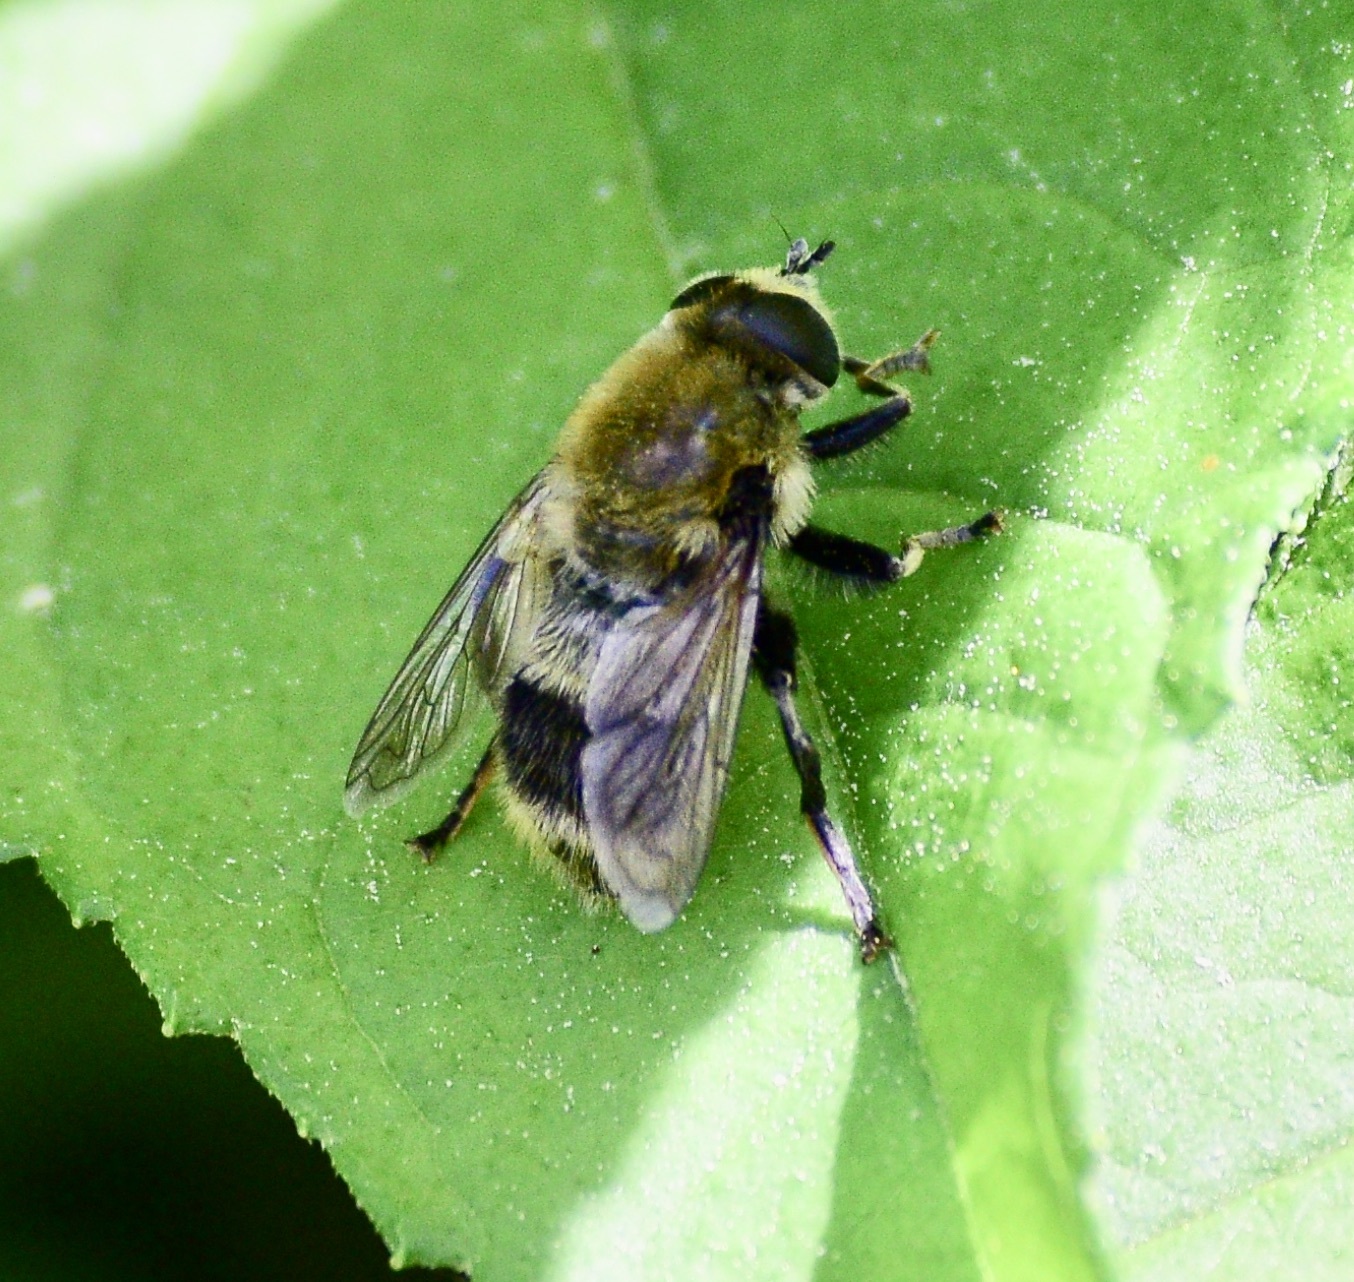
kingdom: Animalia
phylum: Arthropoda
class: Insecta
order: Diptera
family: Syrphidae
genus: Merodon
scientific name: Merodon equestris
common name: Greater bulb-fly
